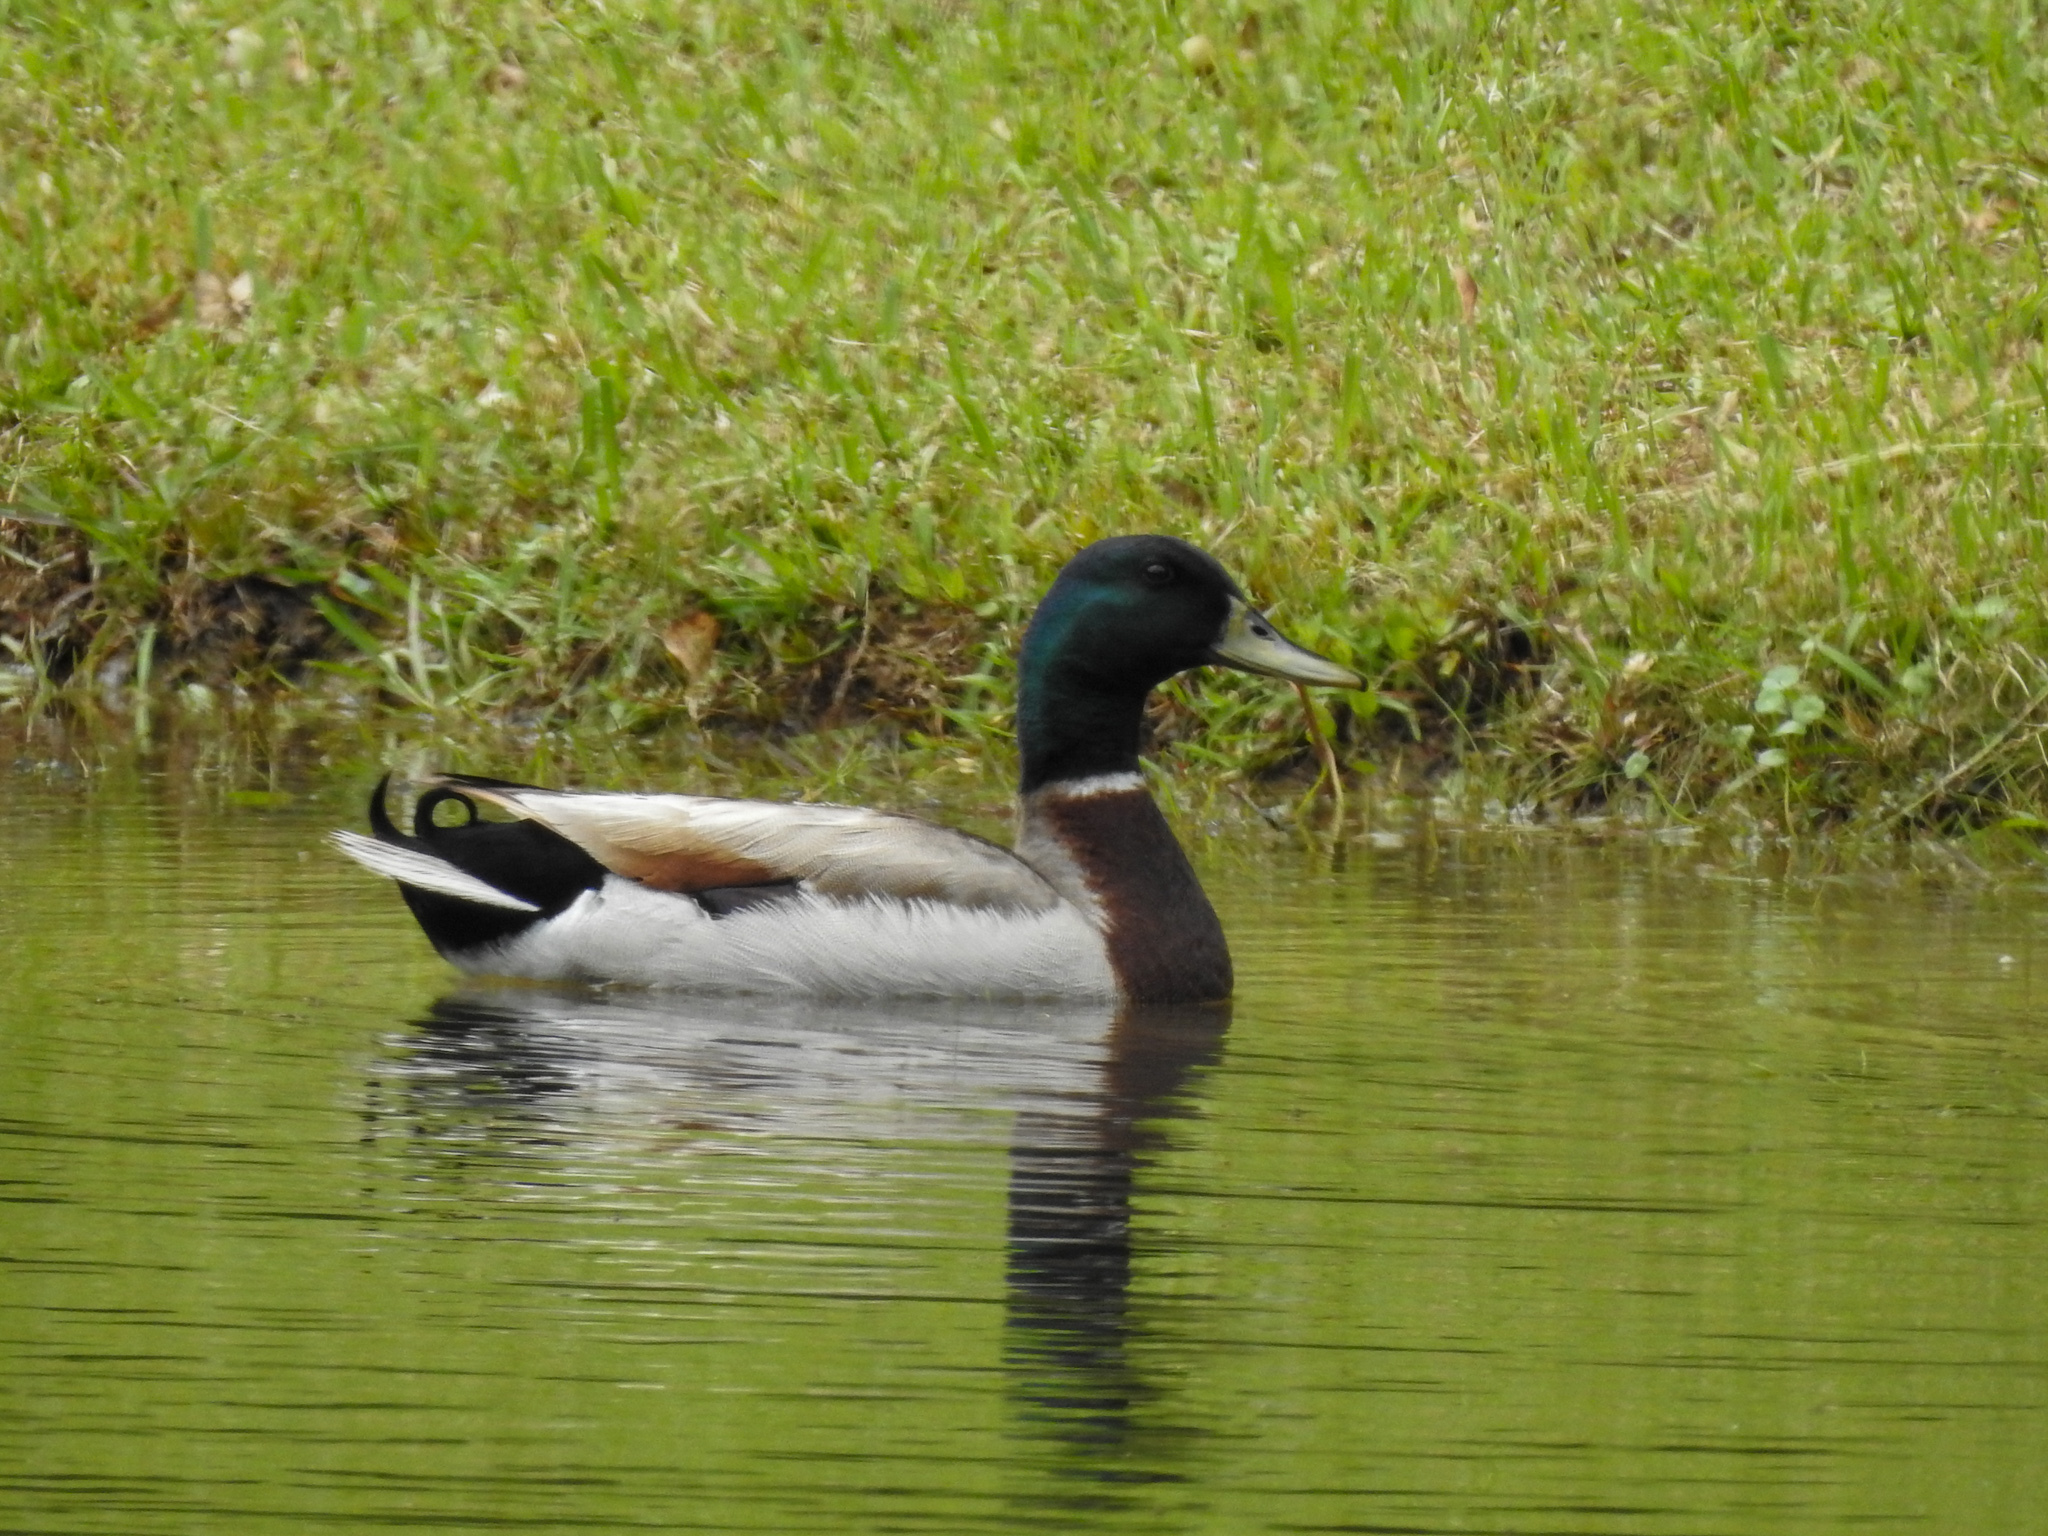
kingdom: Animalia
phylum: Chordata
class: Aves
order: Anseriformes
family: Anatidae
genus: Anas
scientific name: Anas platyrhynchos
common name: Mallard
